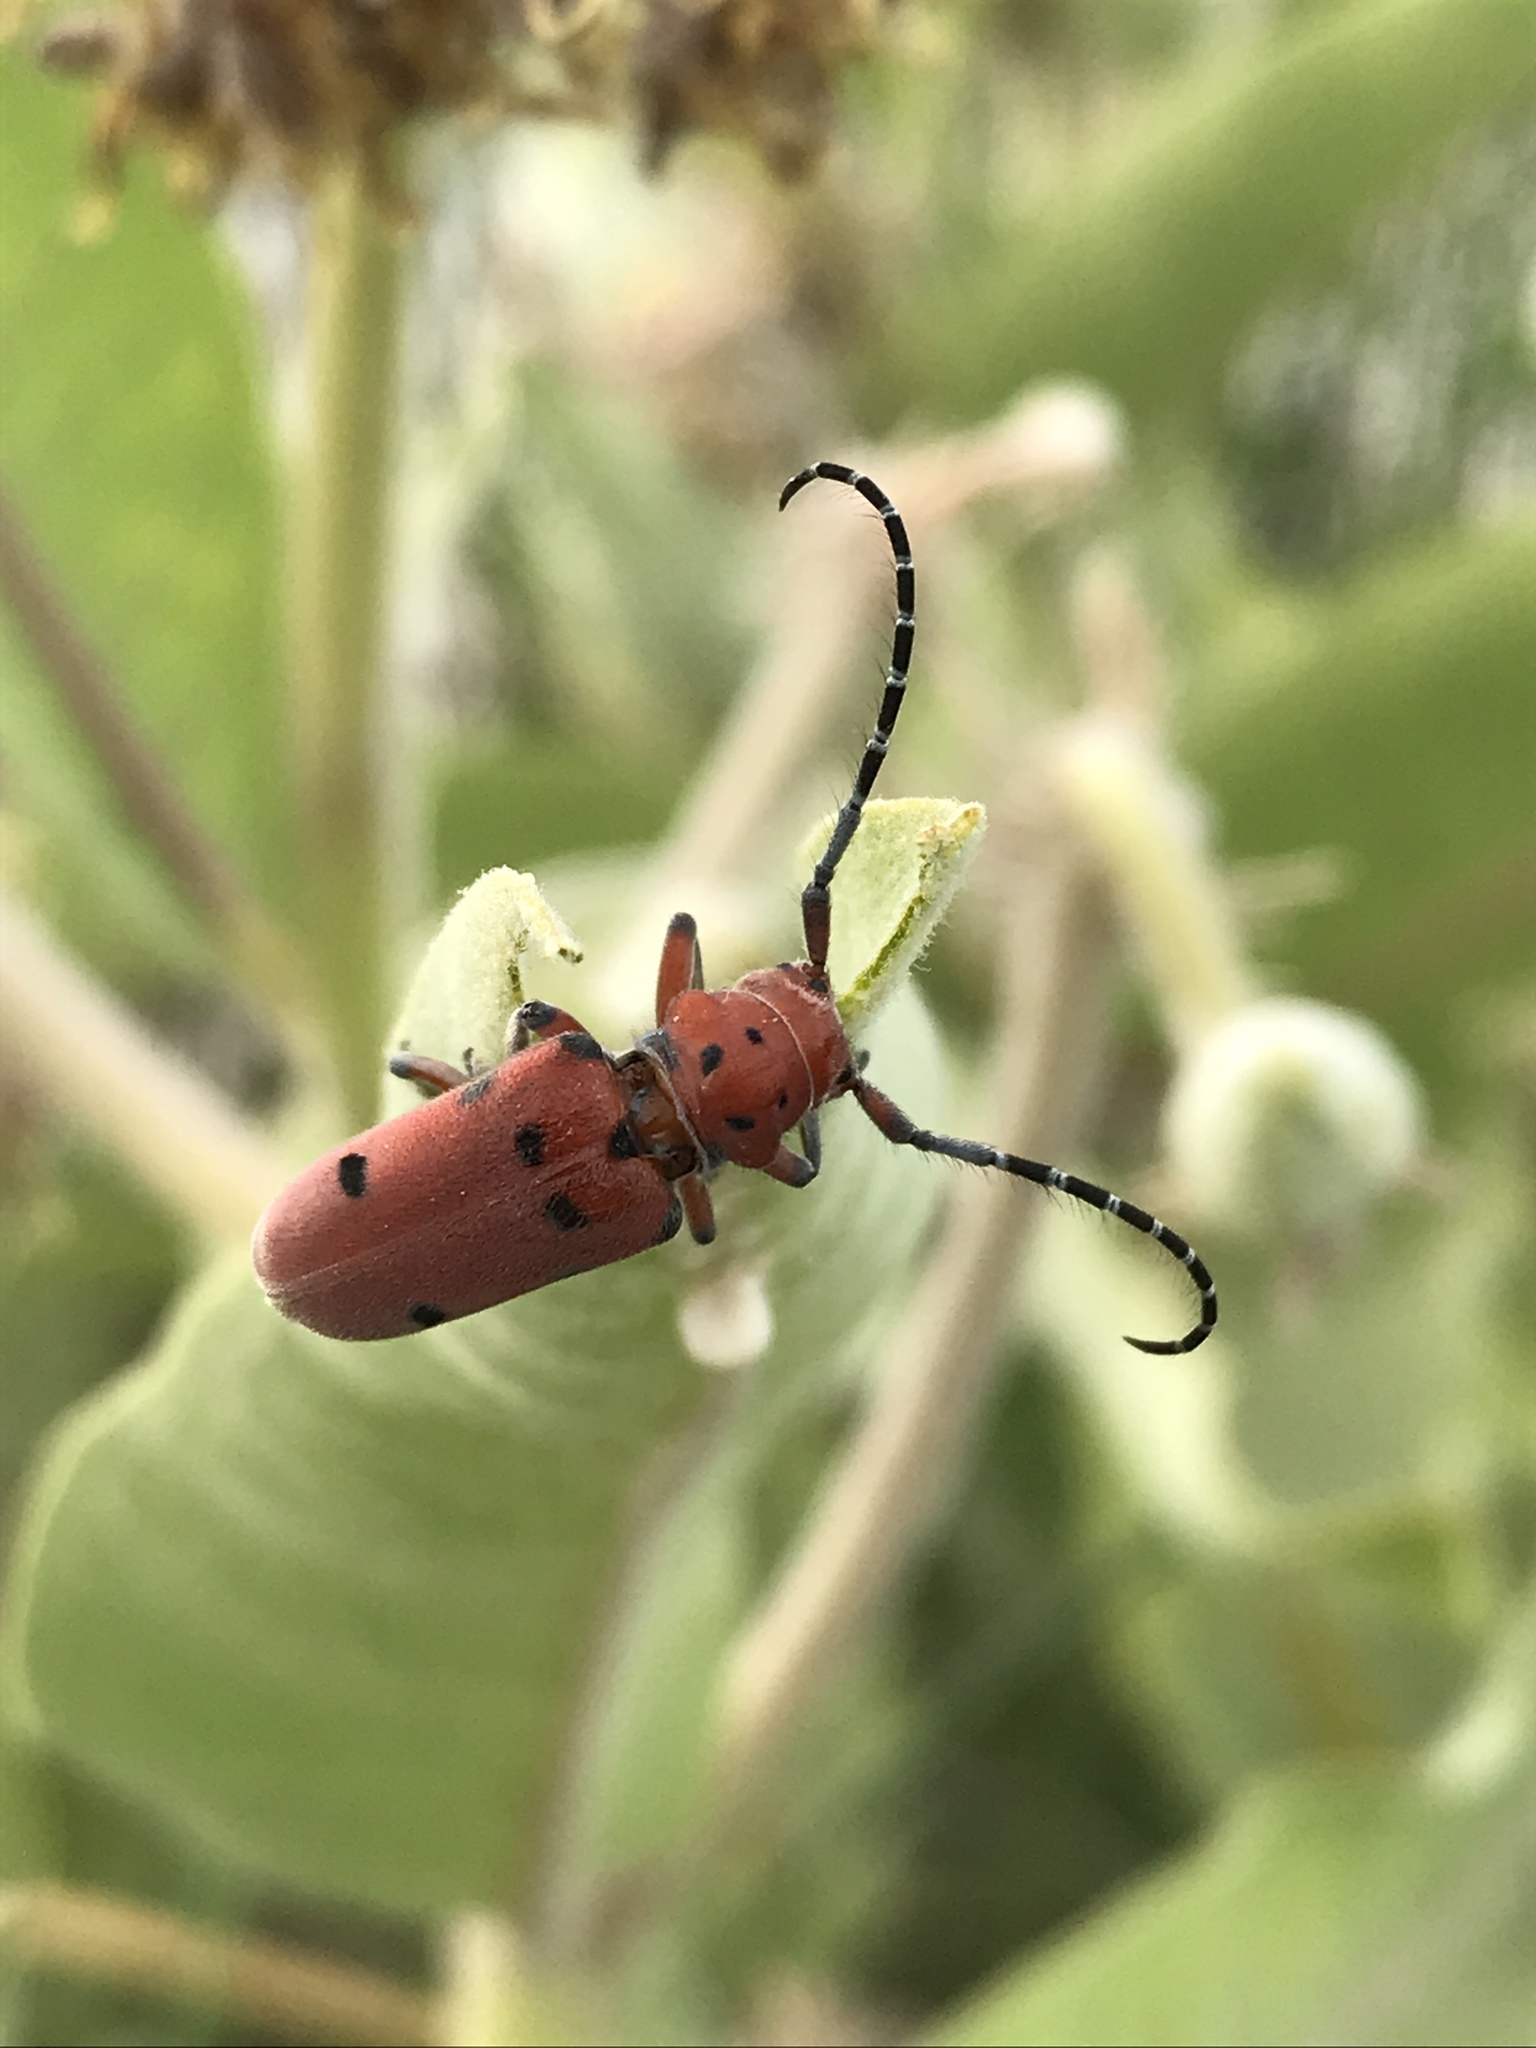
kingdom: Animalia
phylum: Arthropoda
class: Insecta
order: Coleoptera
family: Cerambycidae
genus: Tetraopes
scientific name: Tetraopes femoratus
